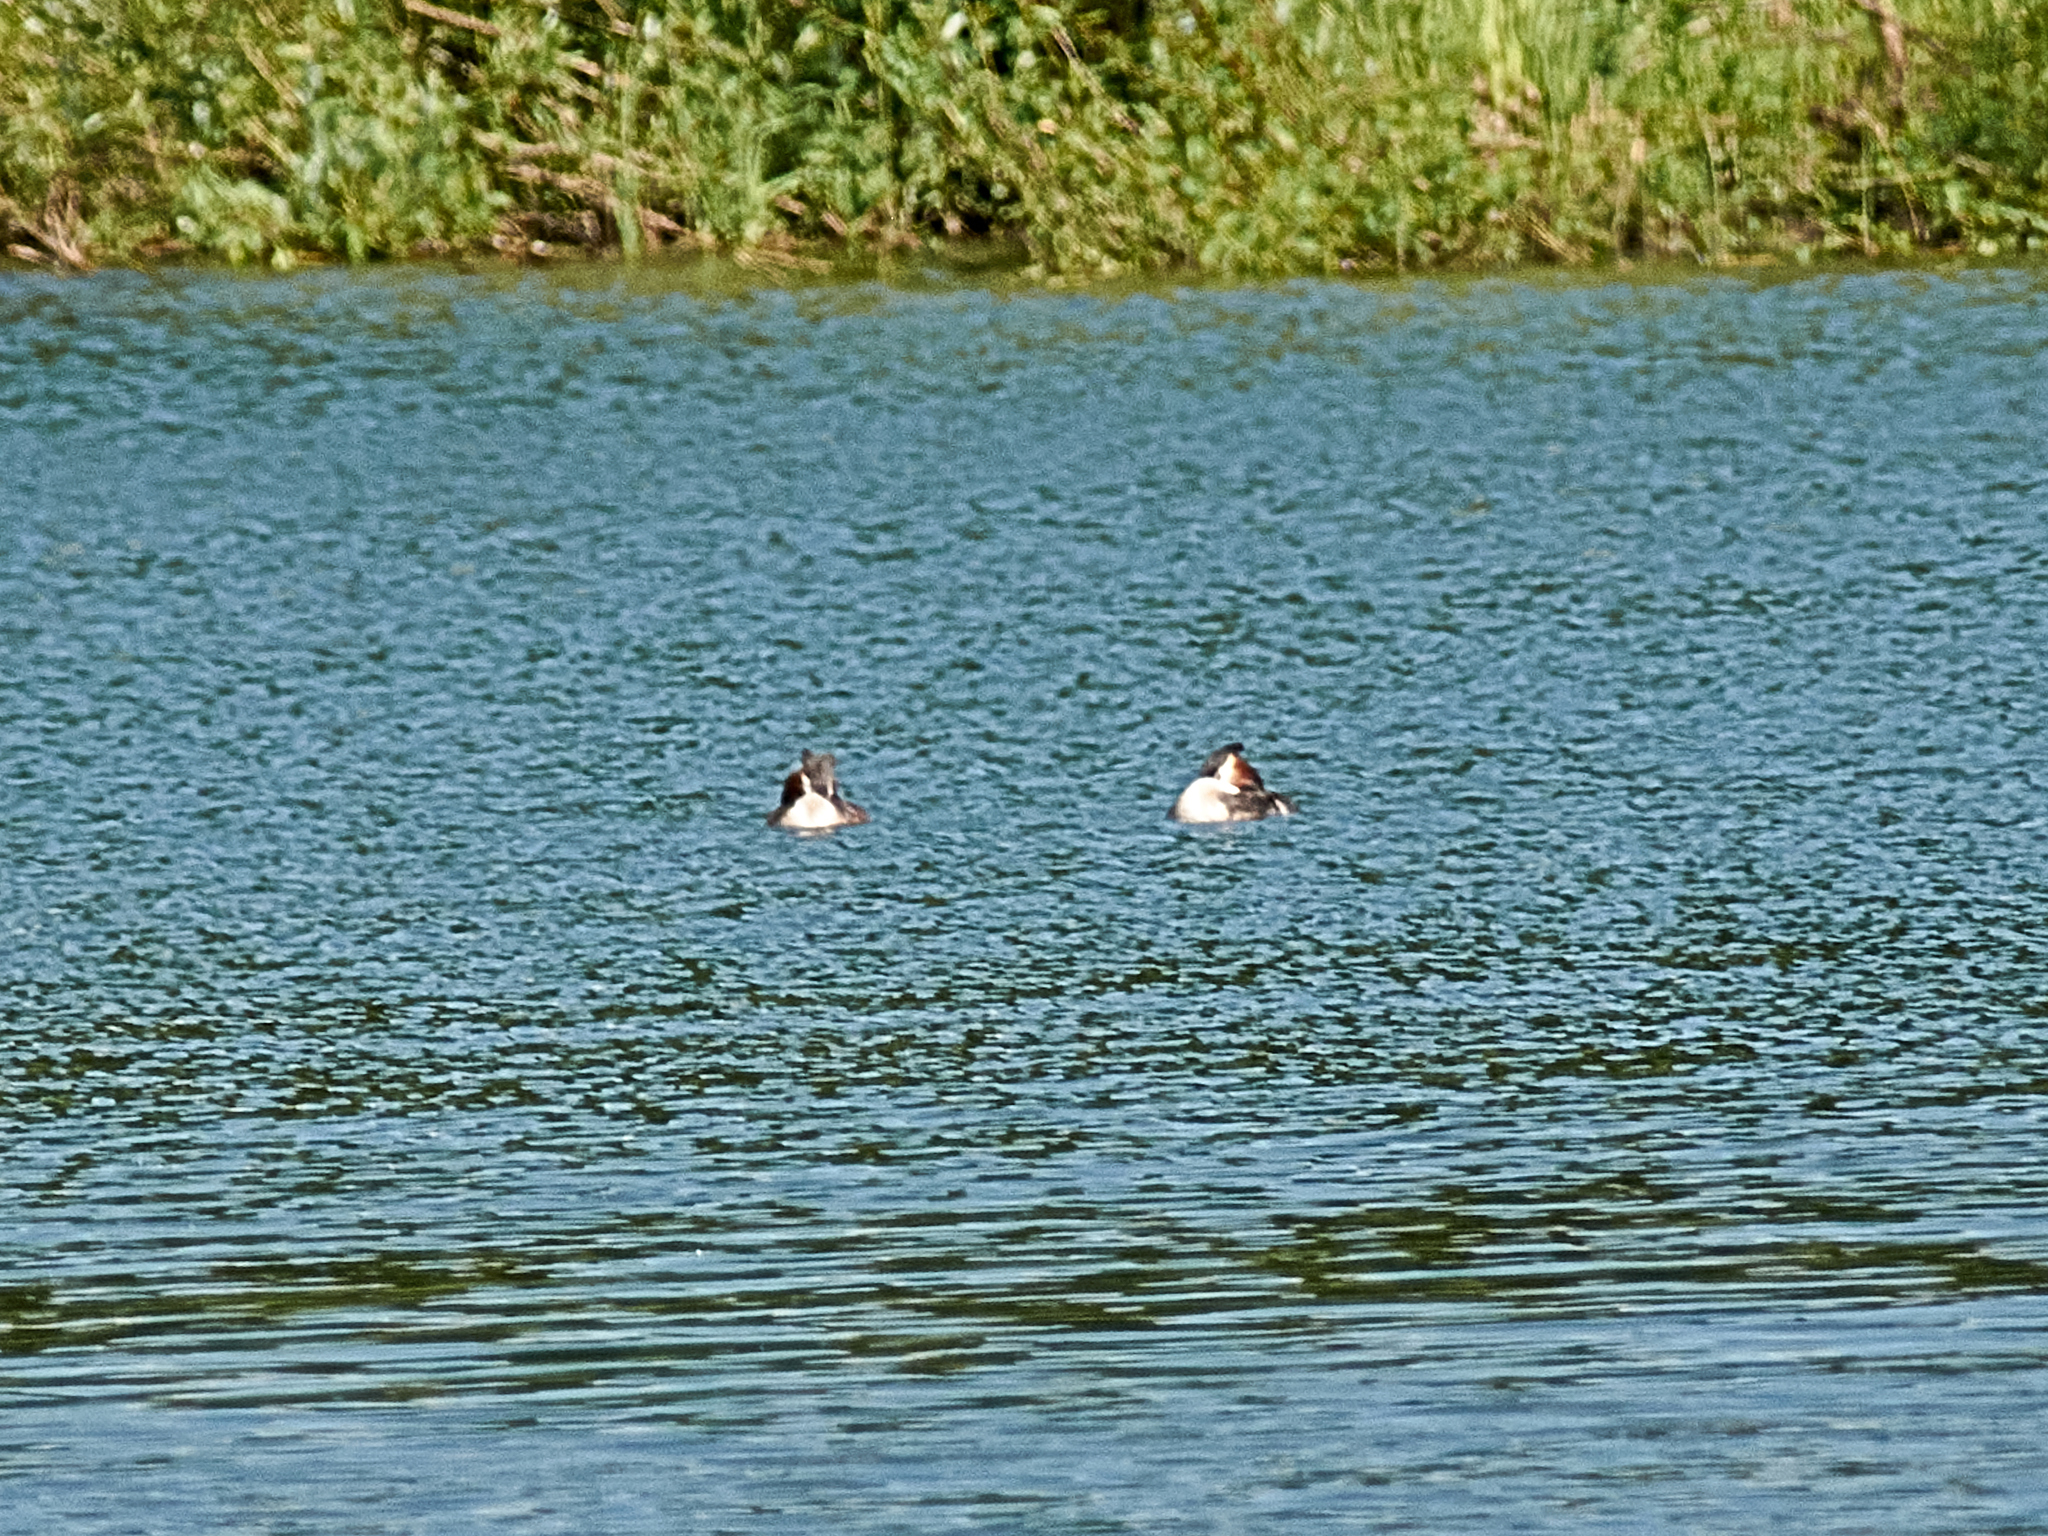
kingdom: Animalia
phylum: Chordata
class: Aves
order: Podicipediformes
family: Podicipedidae
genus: Podiceps
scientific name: Podiceps cristatus
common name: Great crested grebe
